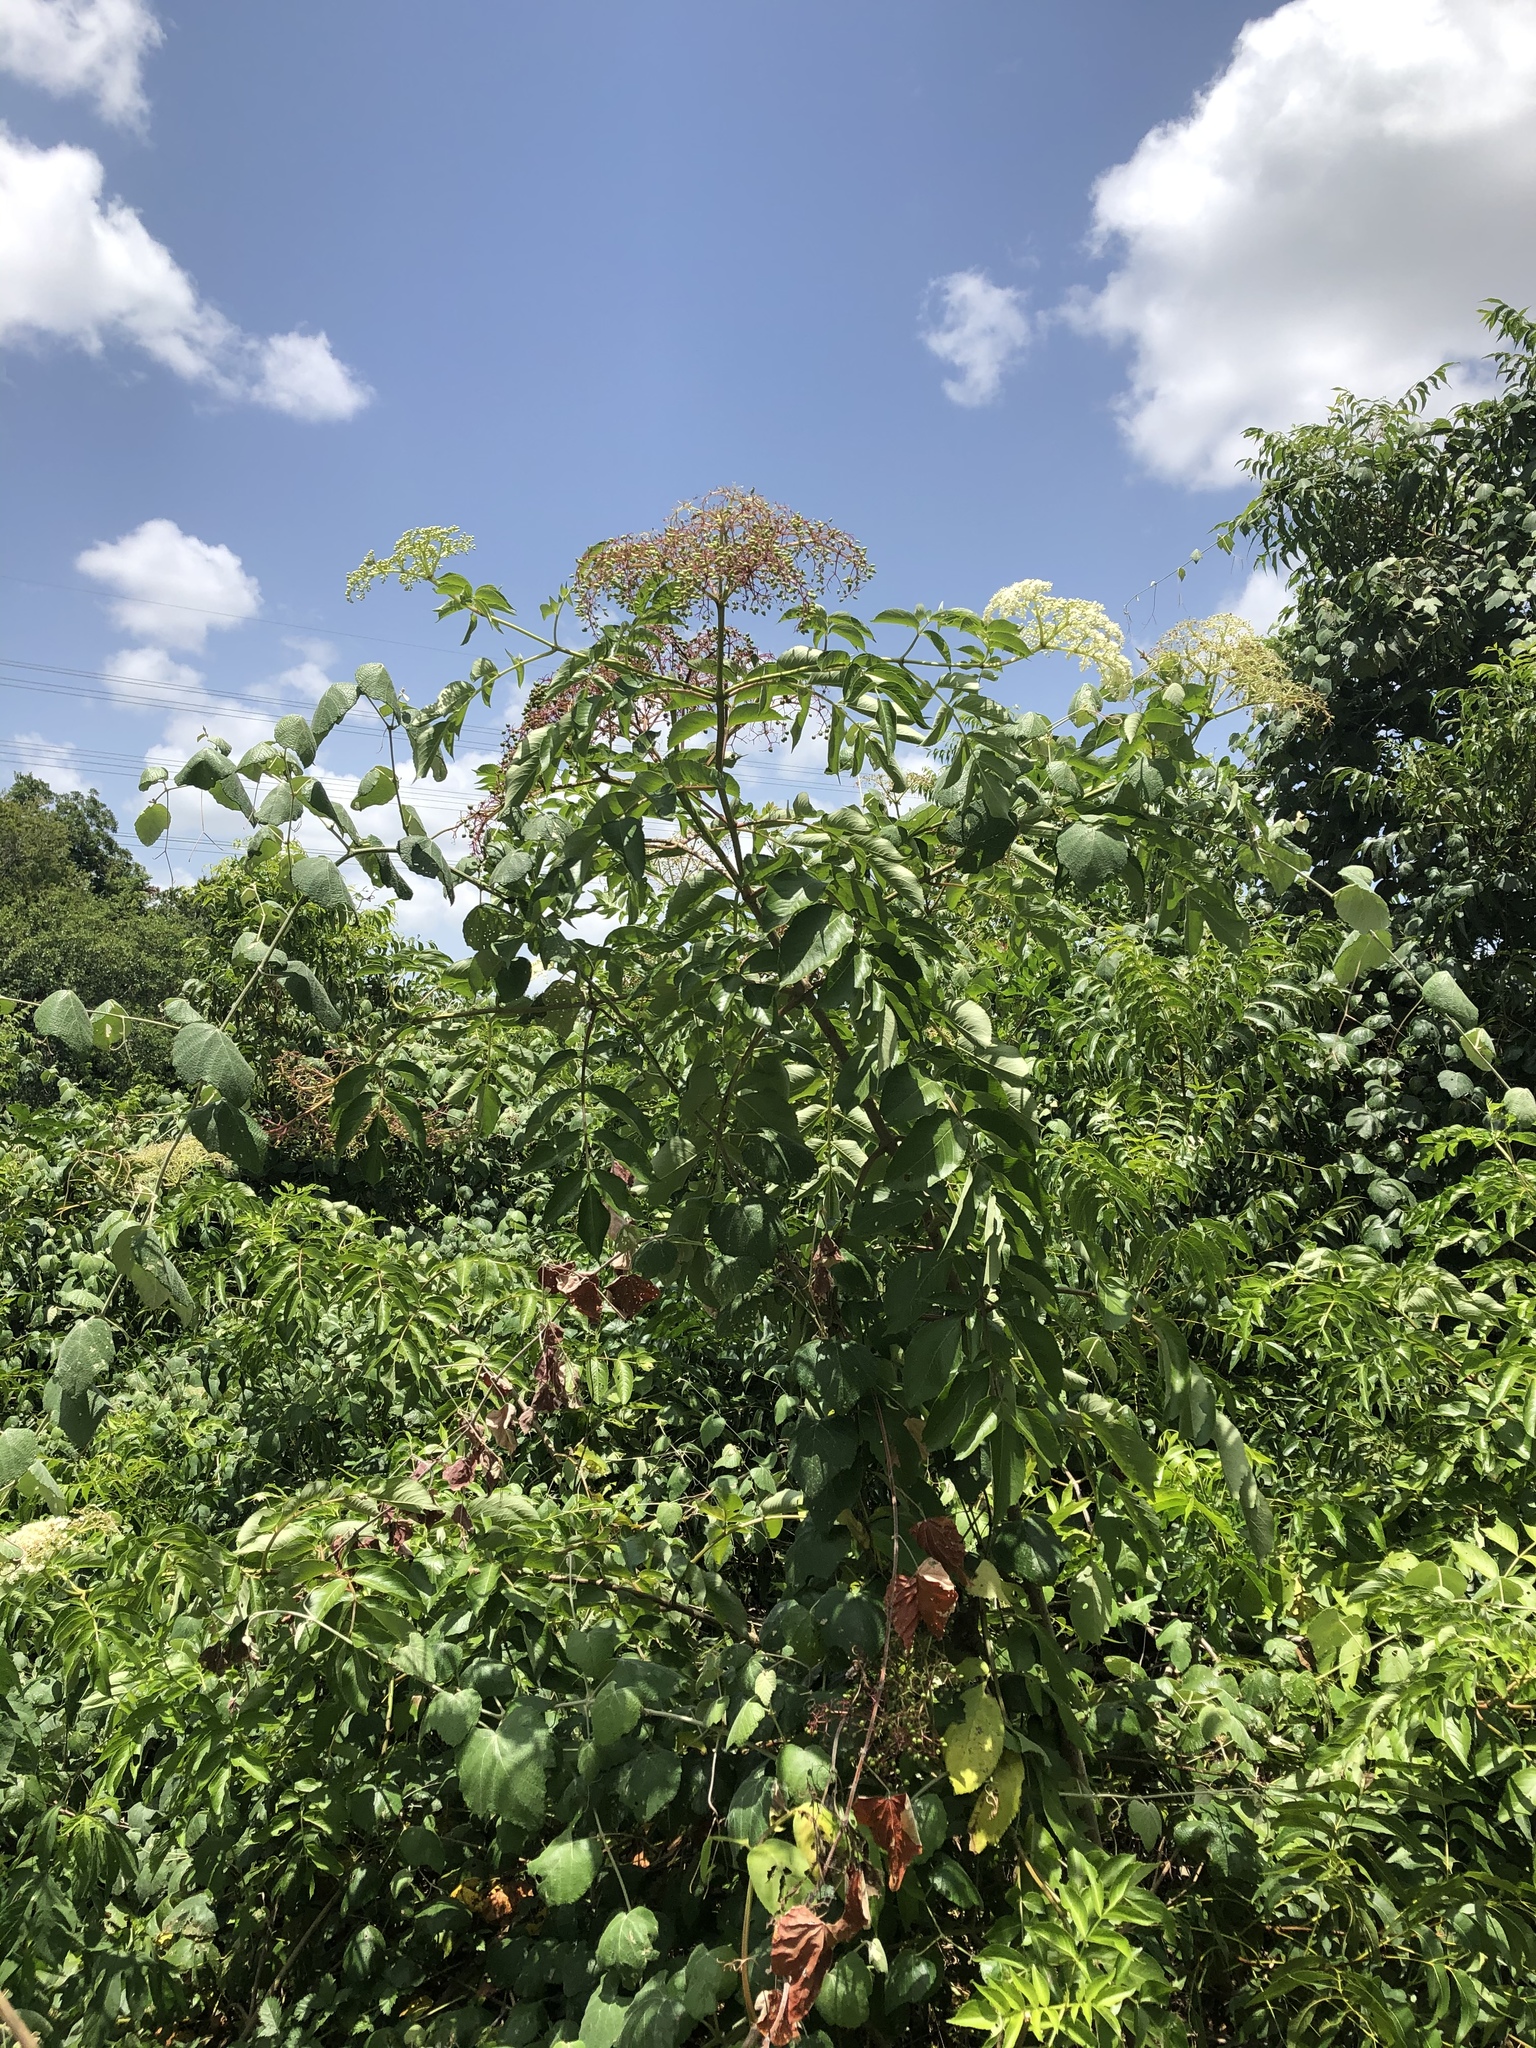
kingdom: Plantae
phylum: Tracheophyta
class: Magnoliopsida
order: Dipsacales
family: Viburnaceae
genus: Sambucus
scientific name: Sambucus canadensis
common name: American elder
